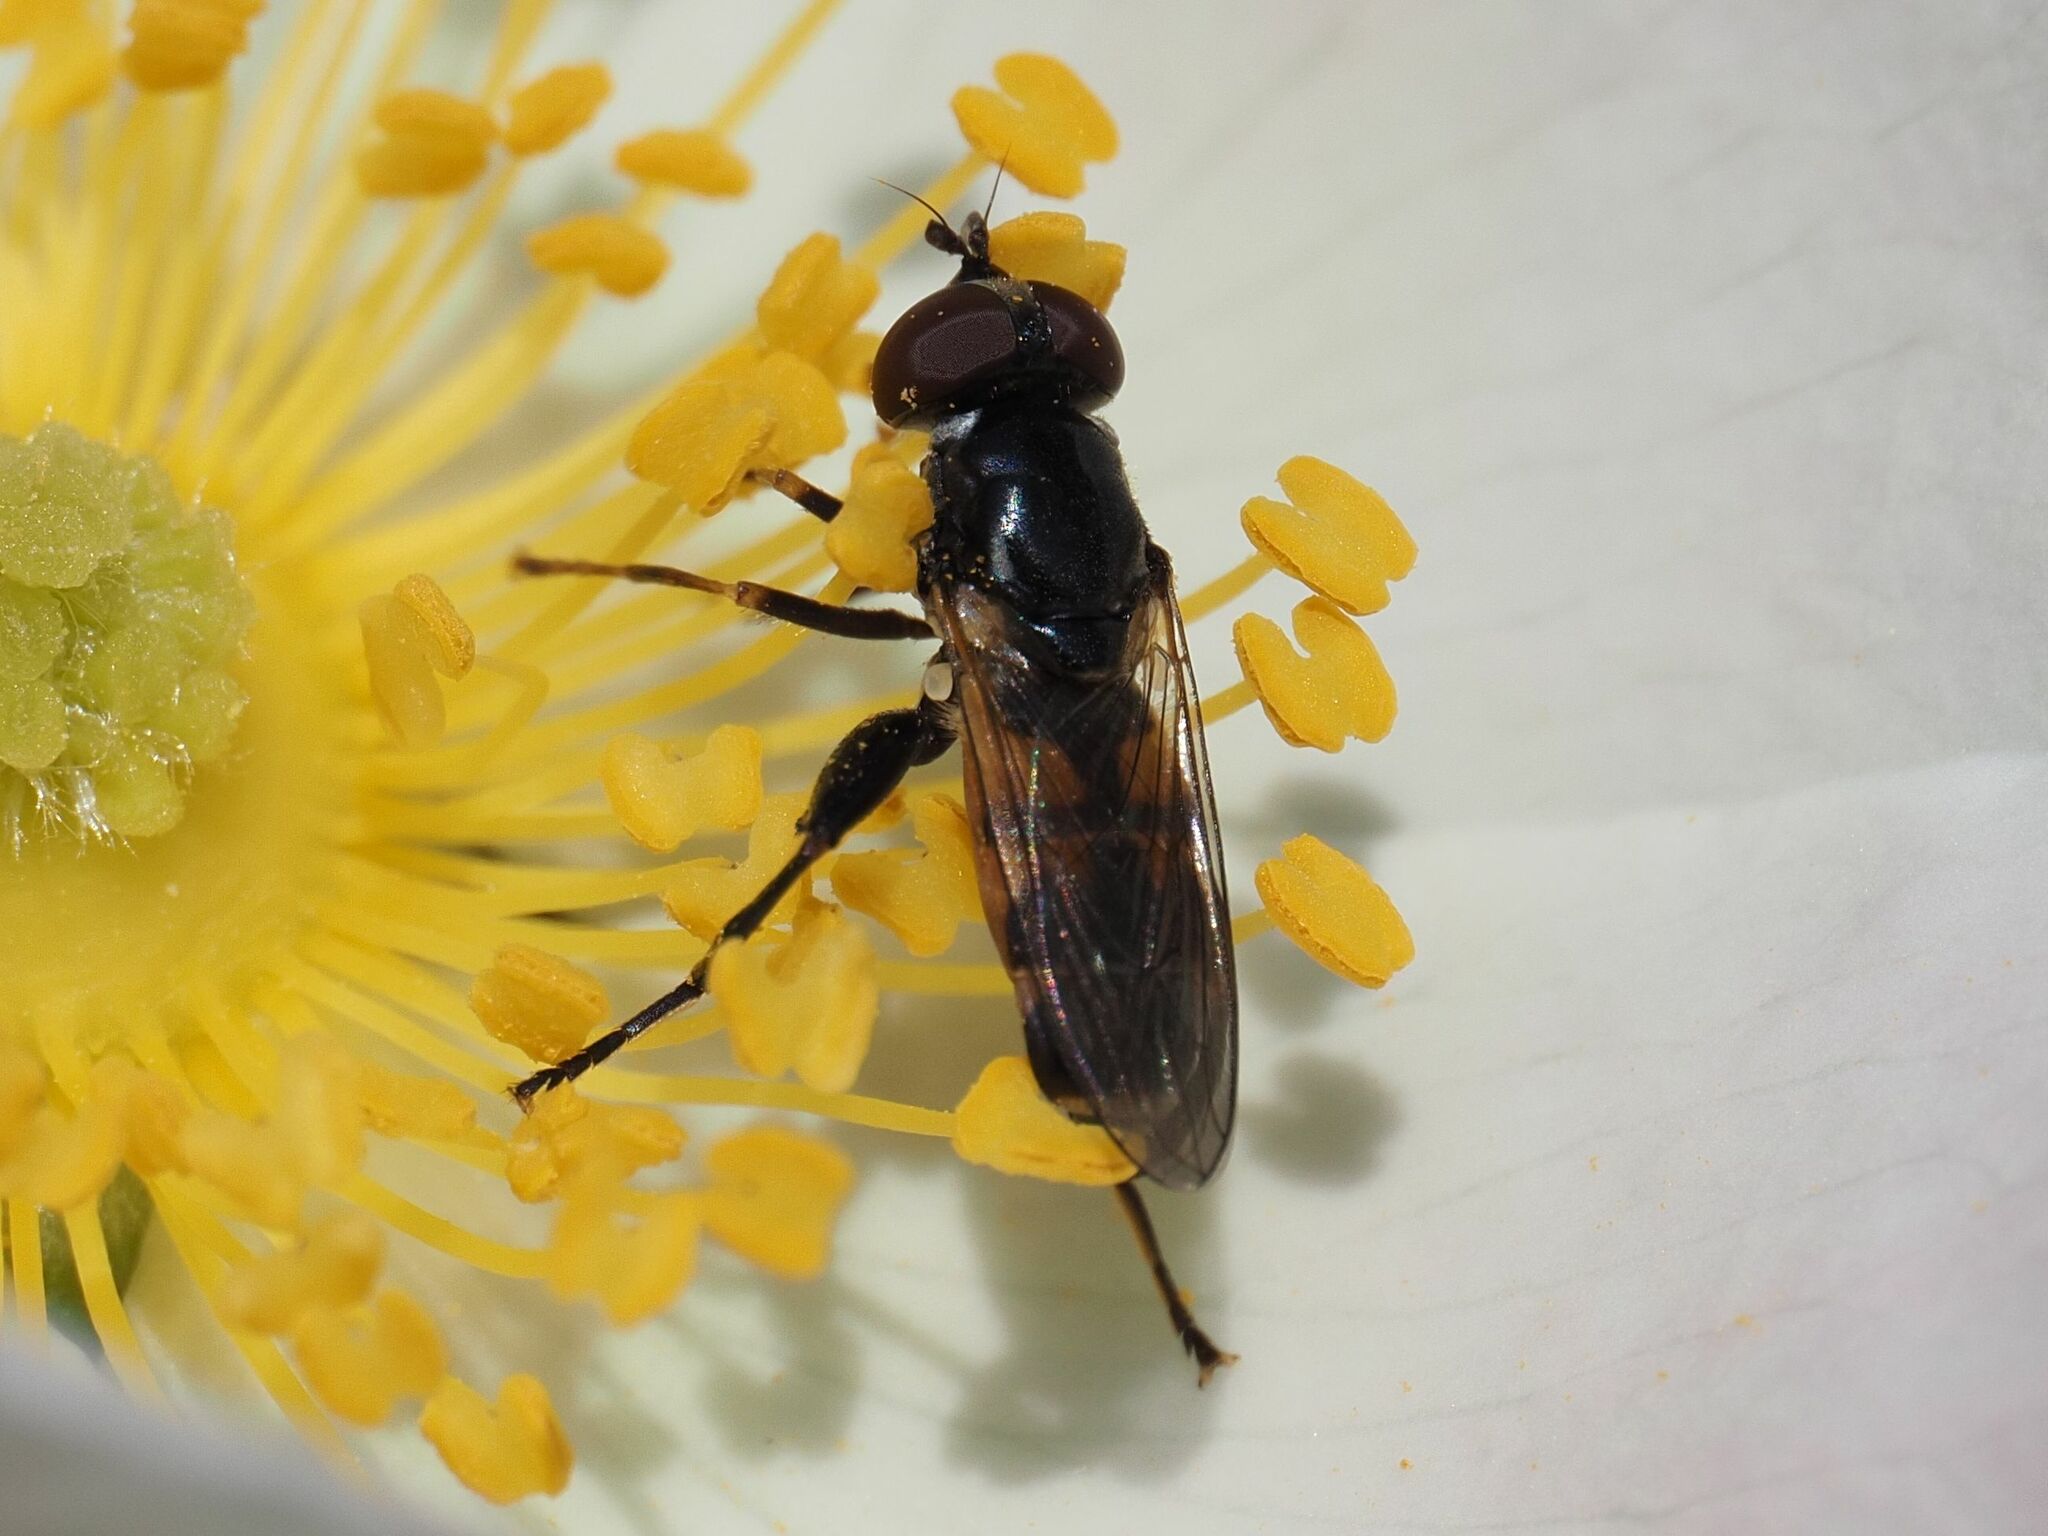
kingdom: Animalia
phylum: Arthropoda
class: Insecta
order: Diptera
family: Syrphidae
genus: Tropidia
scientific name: Tropidia scita
